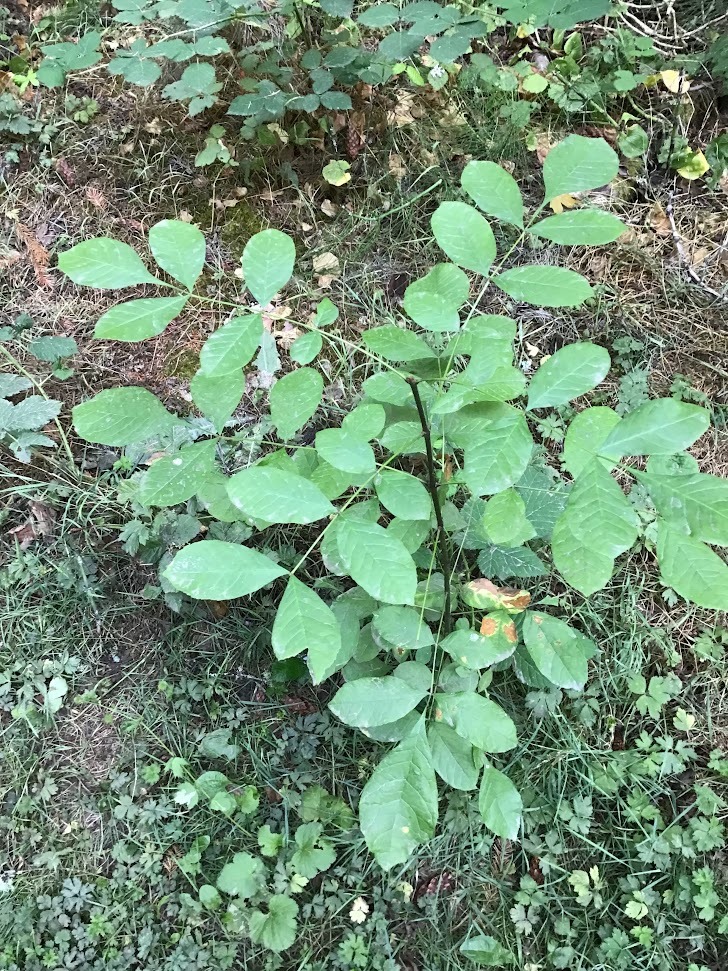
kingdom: Plantae
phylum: Tracheophyta
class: Magnoliopsida
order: Lamiales
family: Oleaceae
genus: Fraxinus
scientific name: Fraxinus latifolia
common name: Oregon ash
